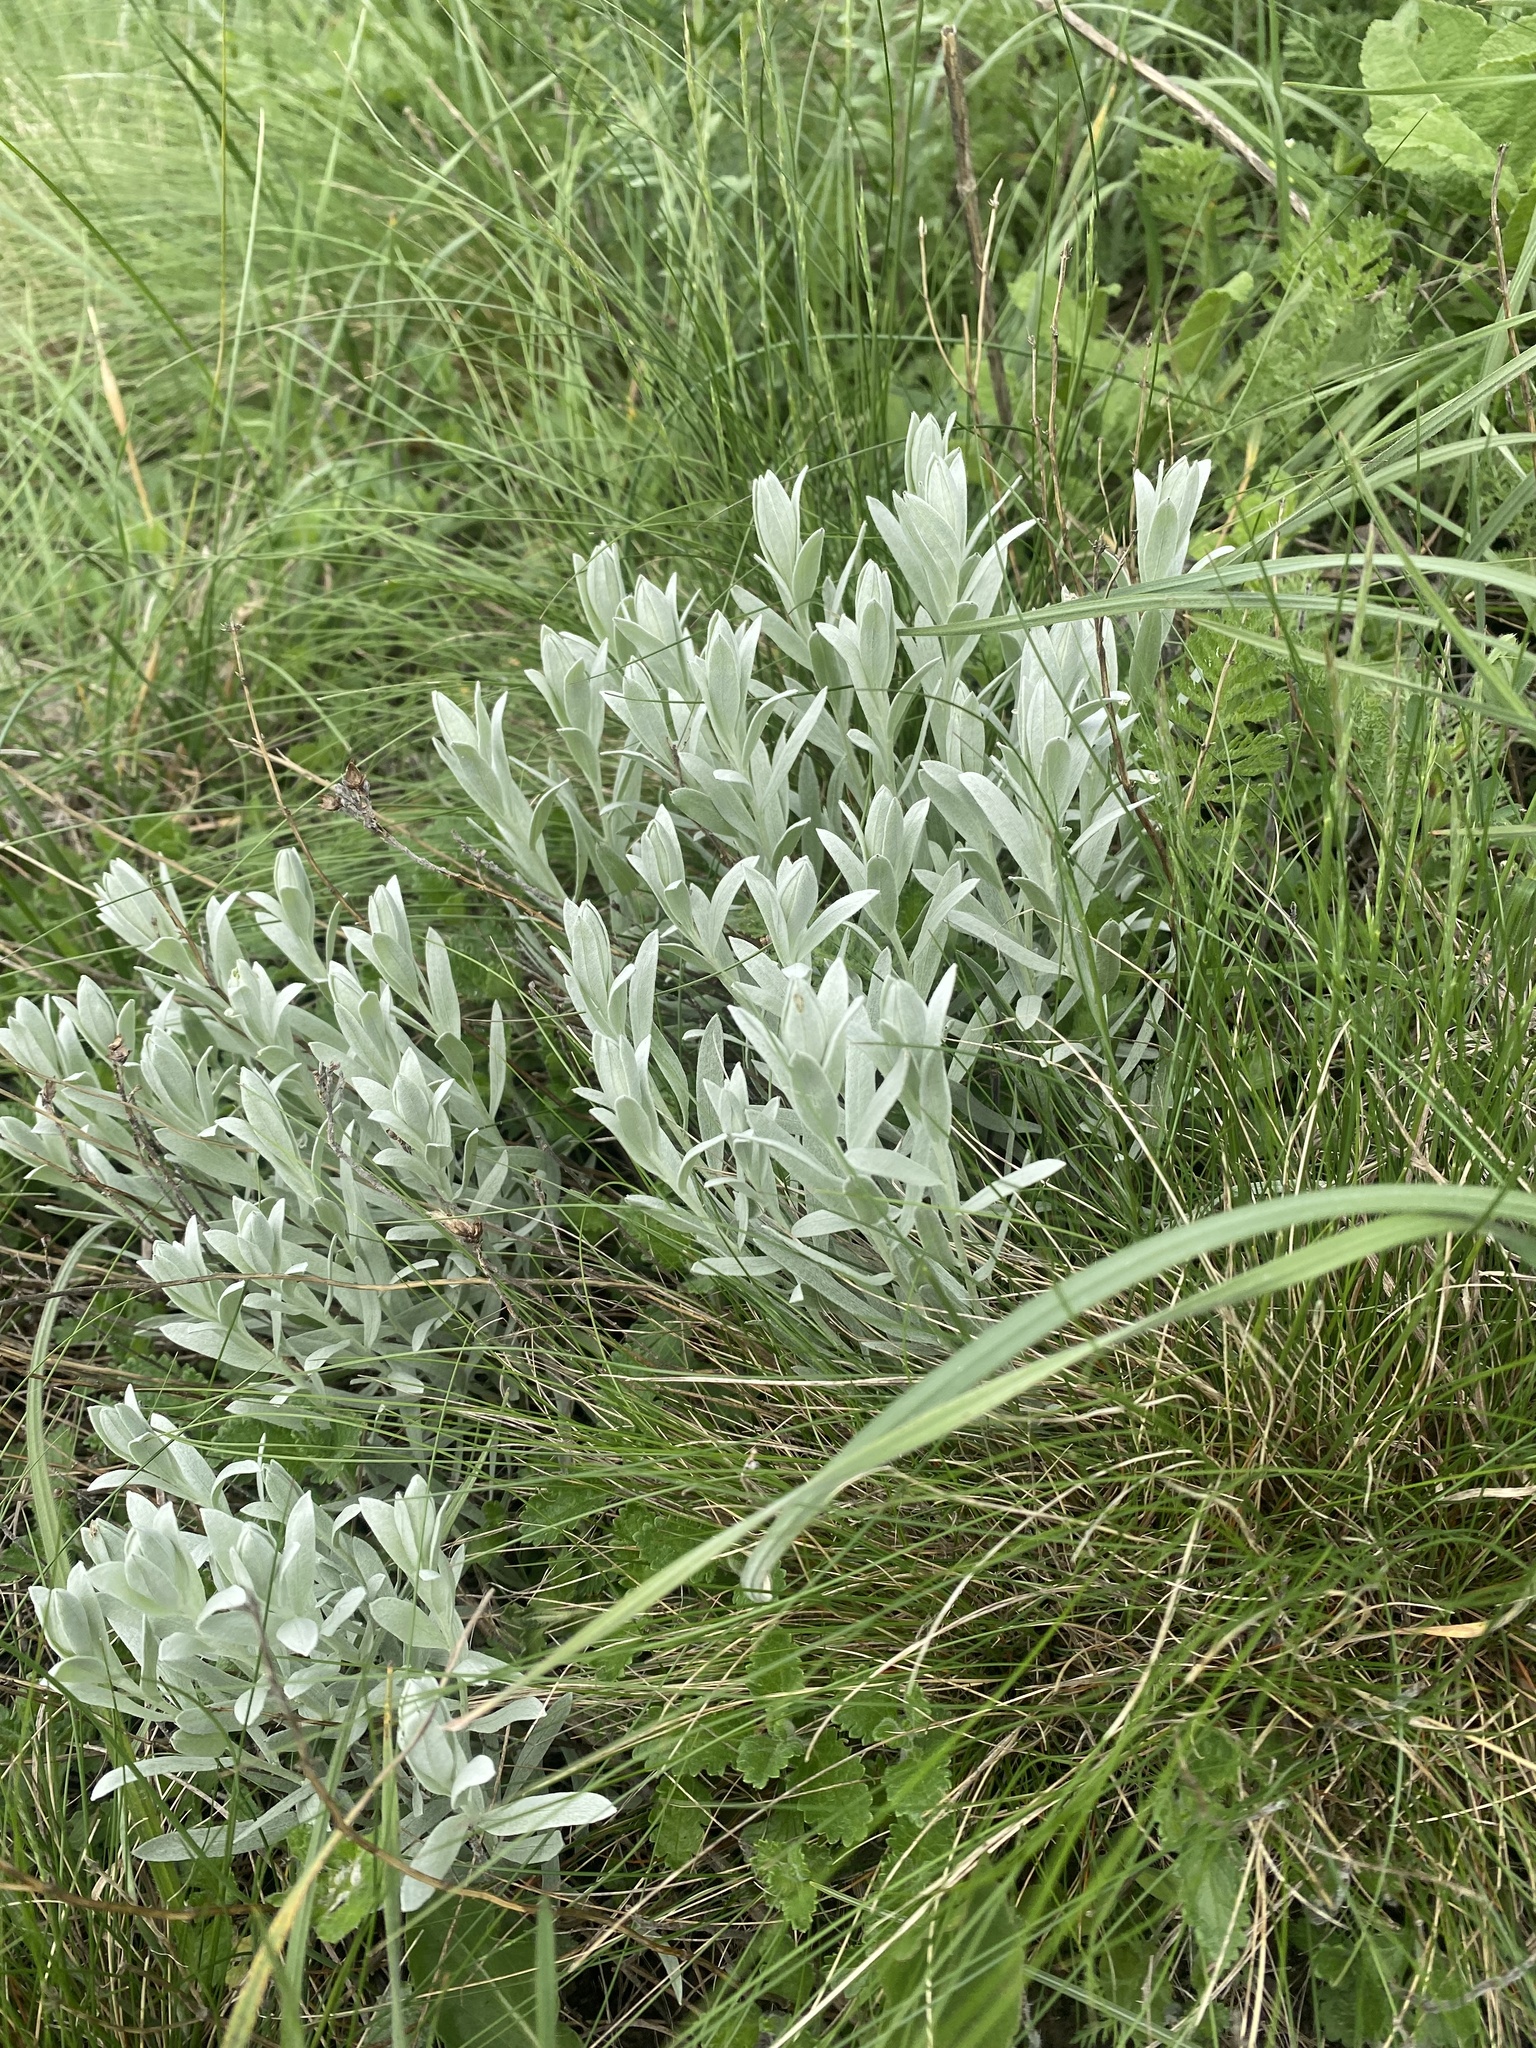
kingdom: Plantae
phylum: Tracheophyta
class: Magnoliopsida
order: Asterales
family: Asteraceae
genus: Galatella
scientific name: Galatella villosa
